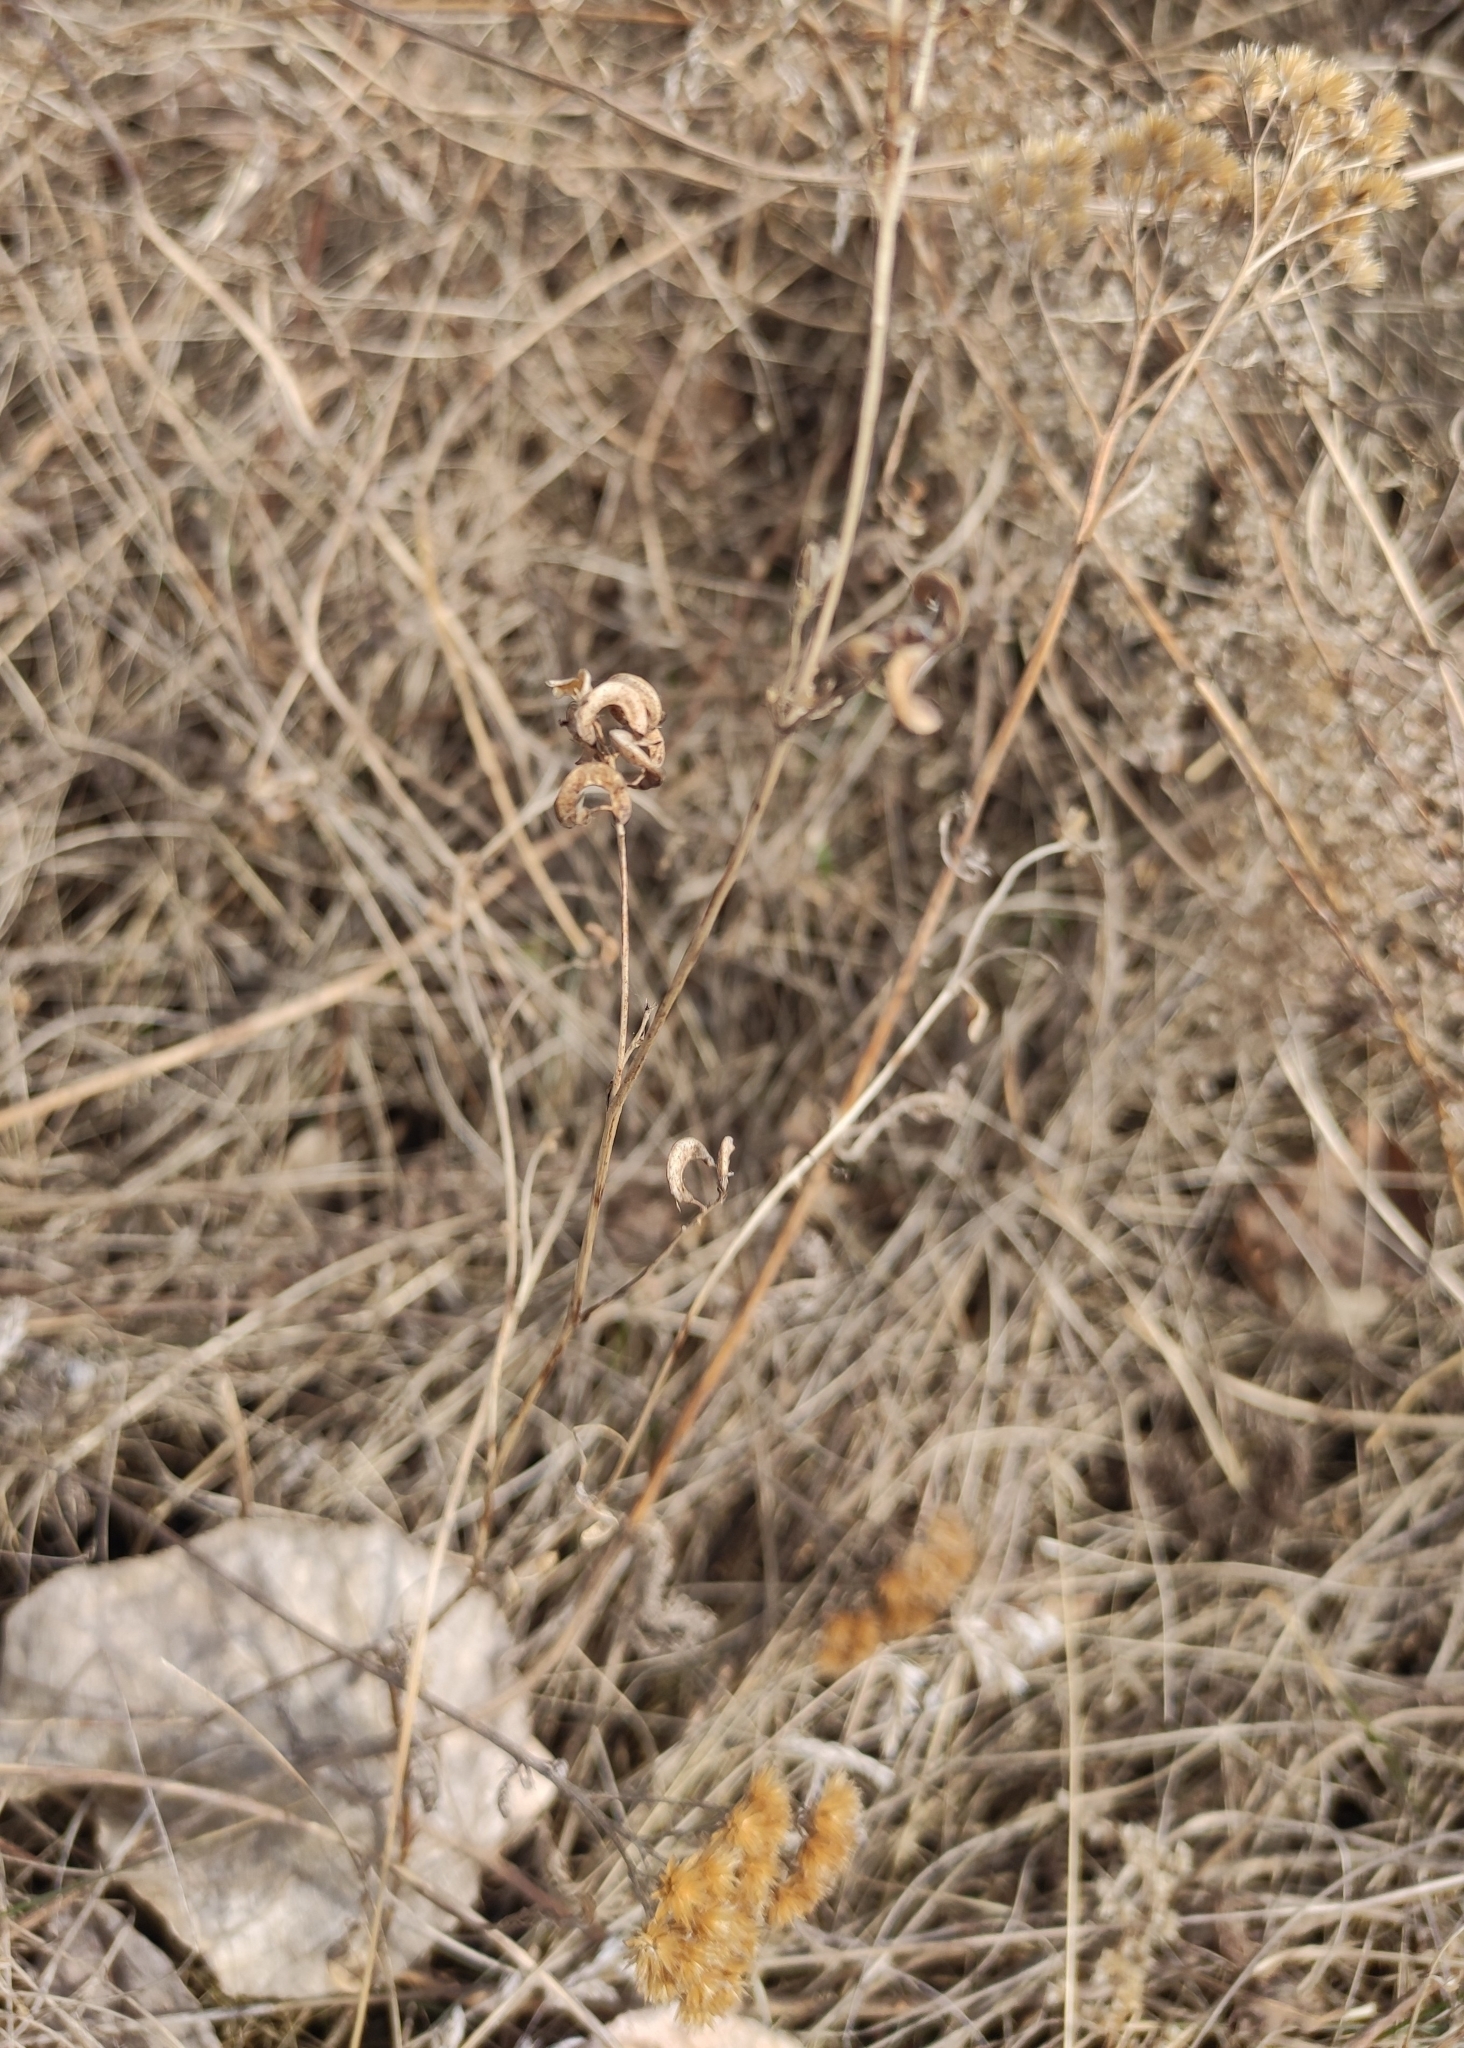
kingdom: Plantae
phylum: Tracheophyta
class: Magnoliopsida
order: Fabales
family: Fabaceae
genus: Medicago
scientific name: Medicago falcata
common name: Sickle medick
